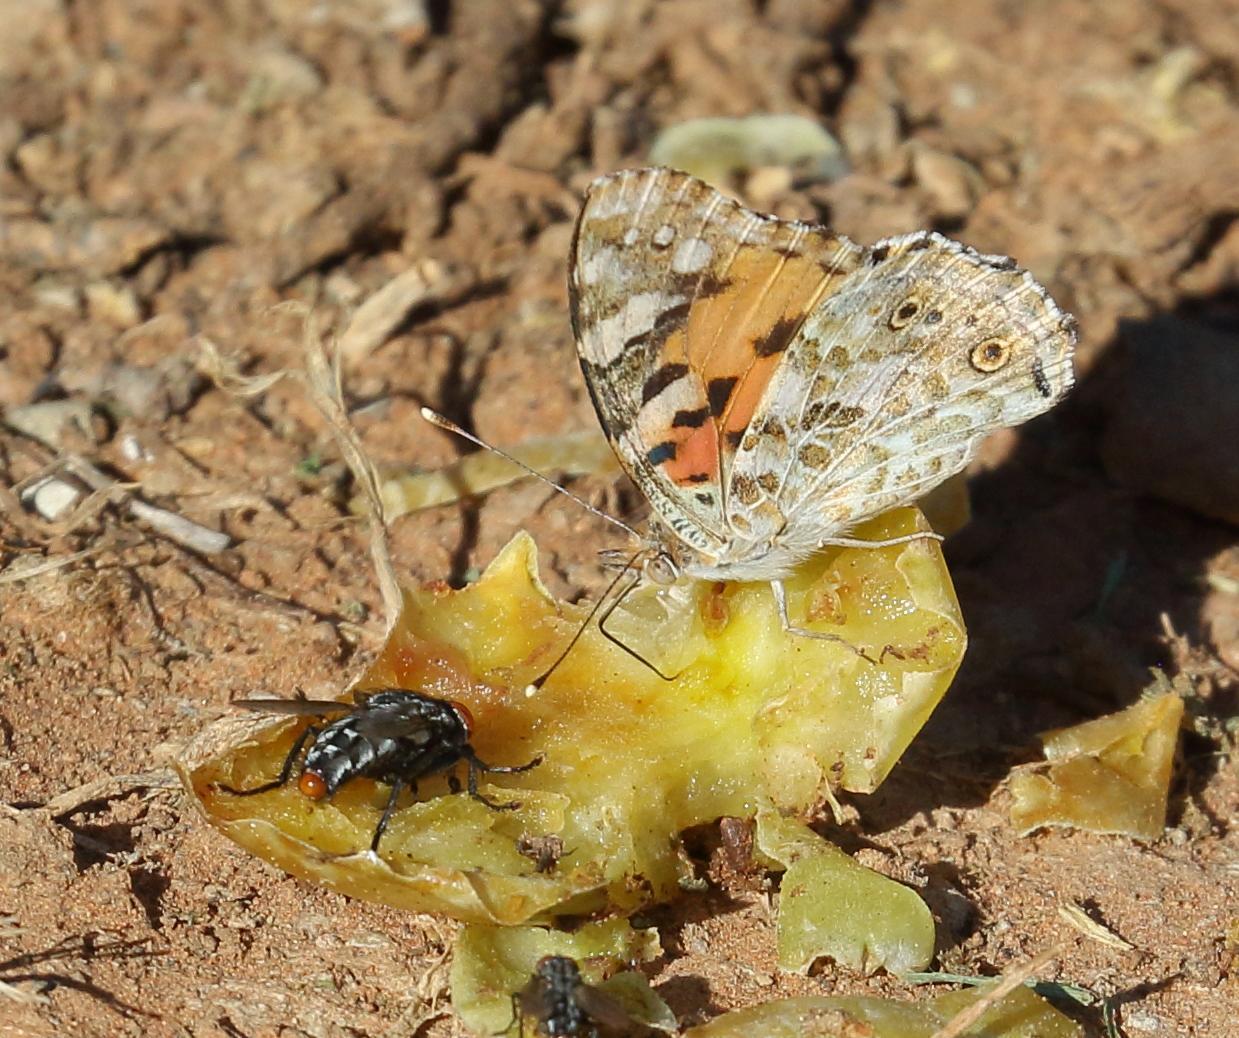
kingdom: Animalia
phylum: Arthropoda
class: Insecta
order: Lepidoptera
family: Nymphalidae
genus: Vanessa
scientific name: Vanessa cardui
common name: Painted lady
